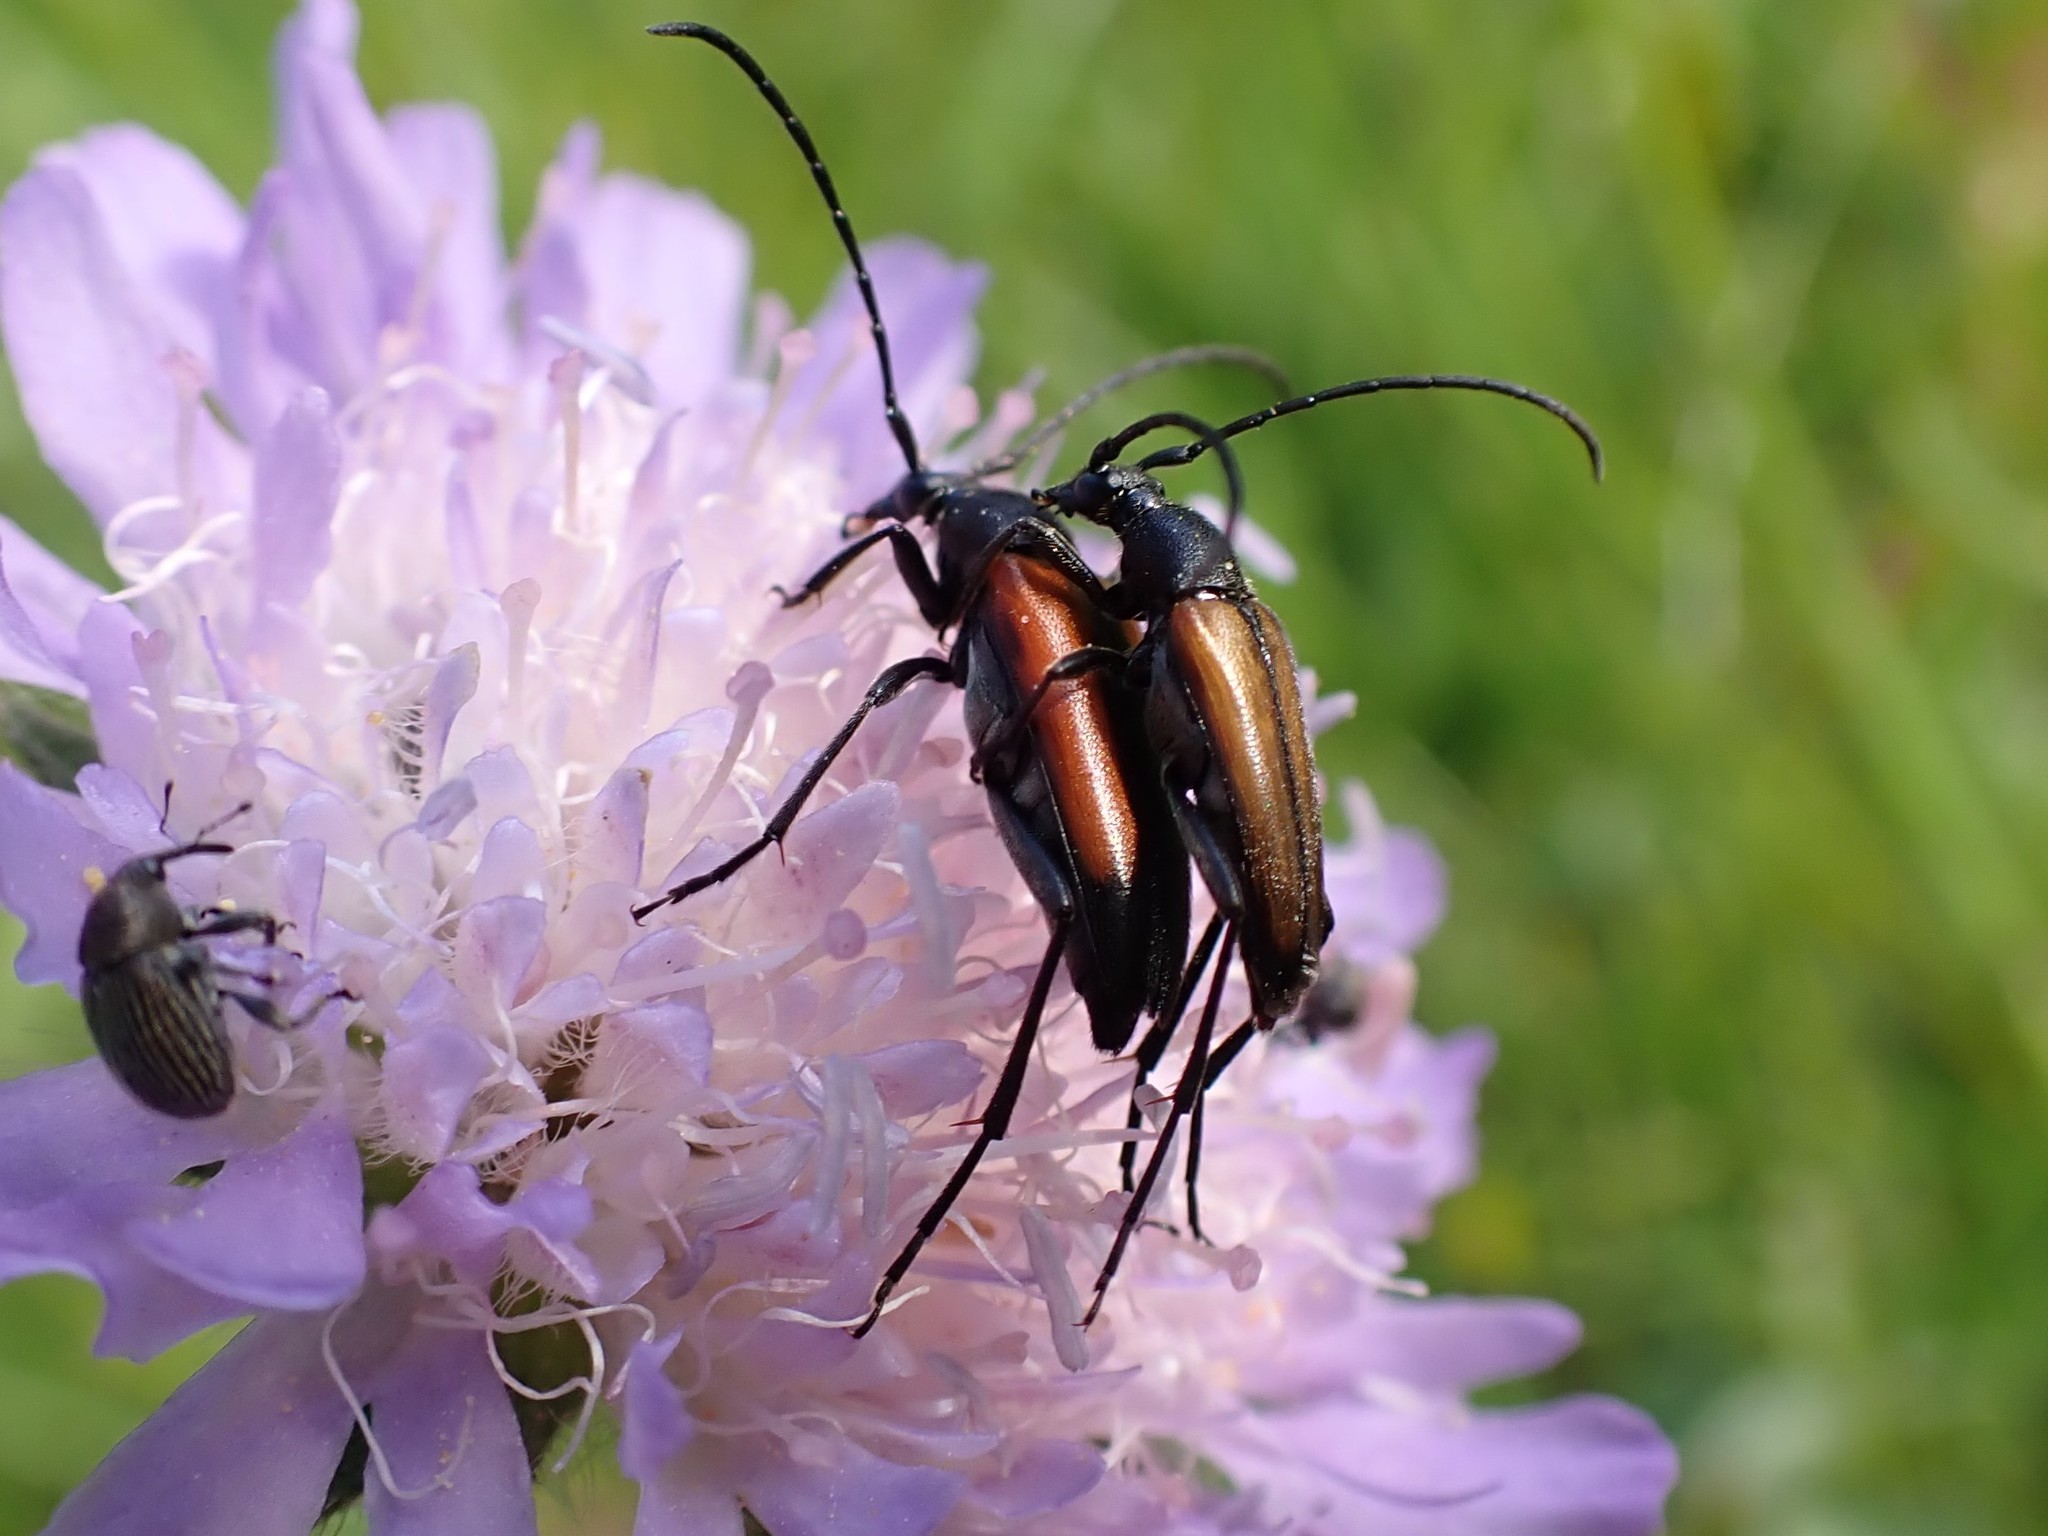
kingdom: Animalia
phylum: Arthropoda
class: Insecta
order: Coleoptera
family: Cerambycidae
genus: Stenurella
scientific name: Stenurella melanura
